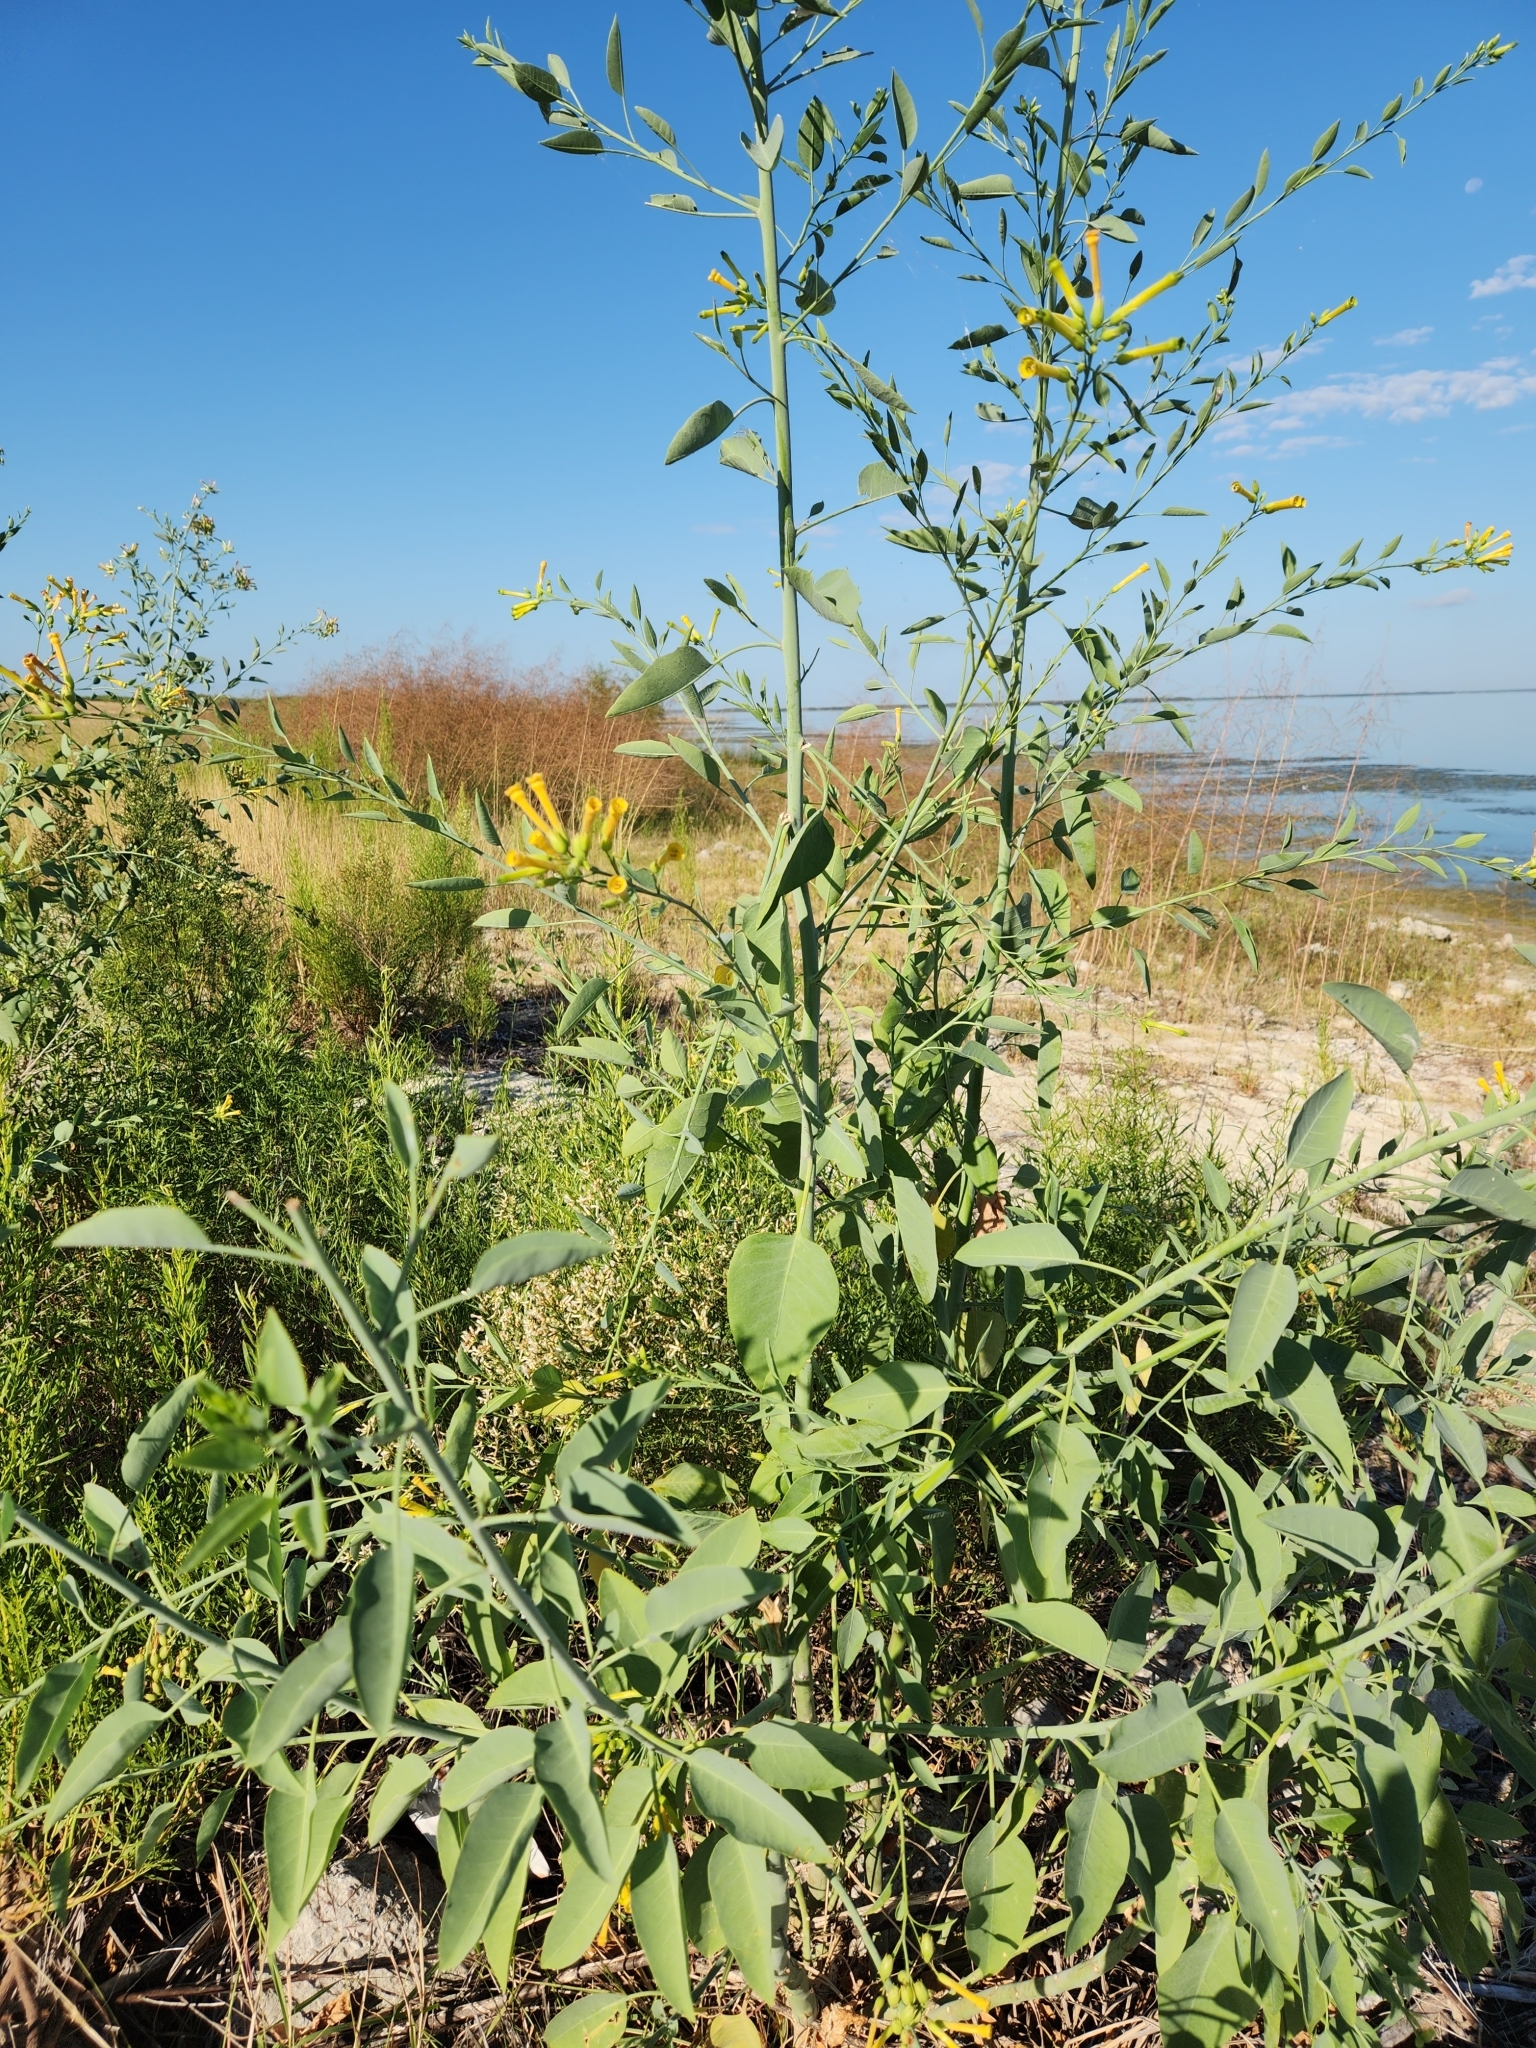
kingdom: Plantae
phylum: Tracheophyta
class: Magnoliopsida
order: Solanales
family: Solanaceae
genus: Nicotiana
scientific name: Nicotiana glauca
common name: Tree tobacco
